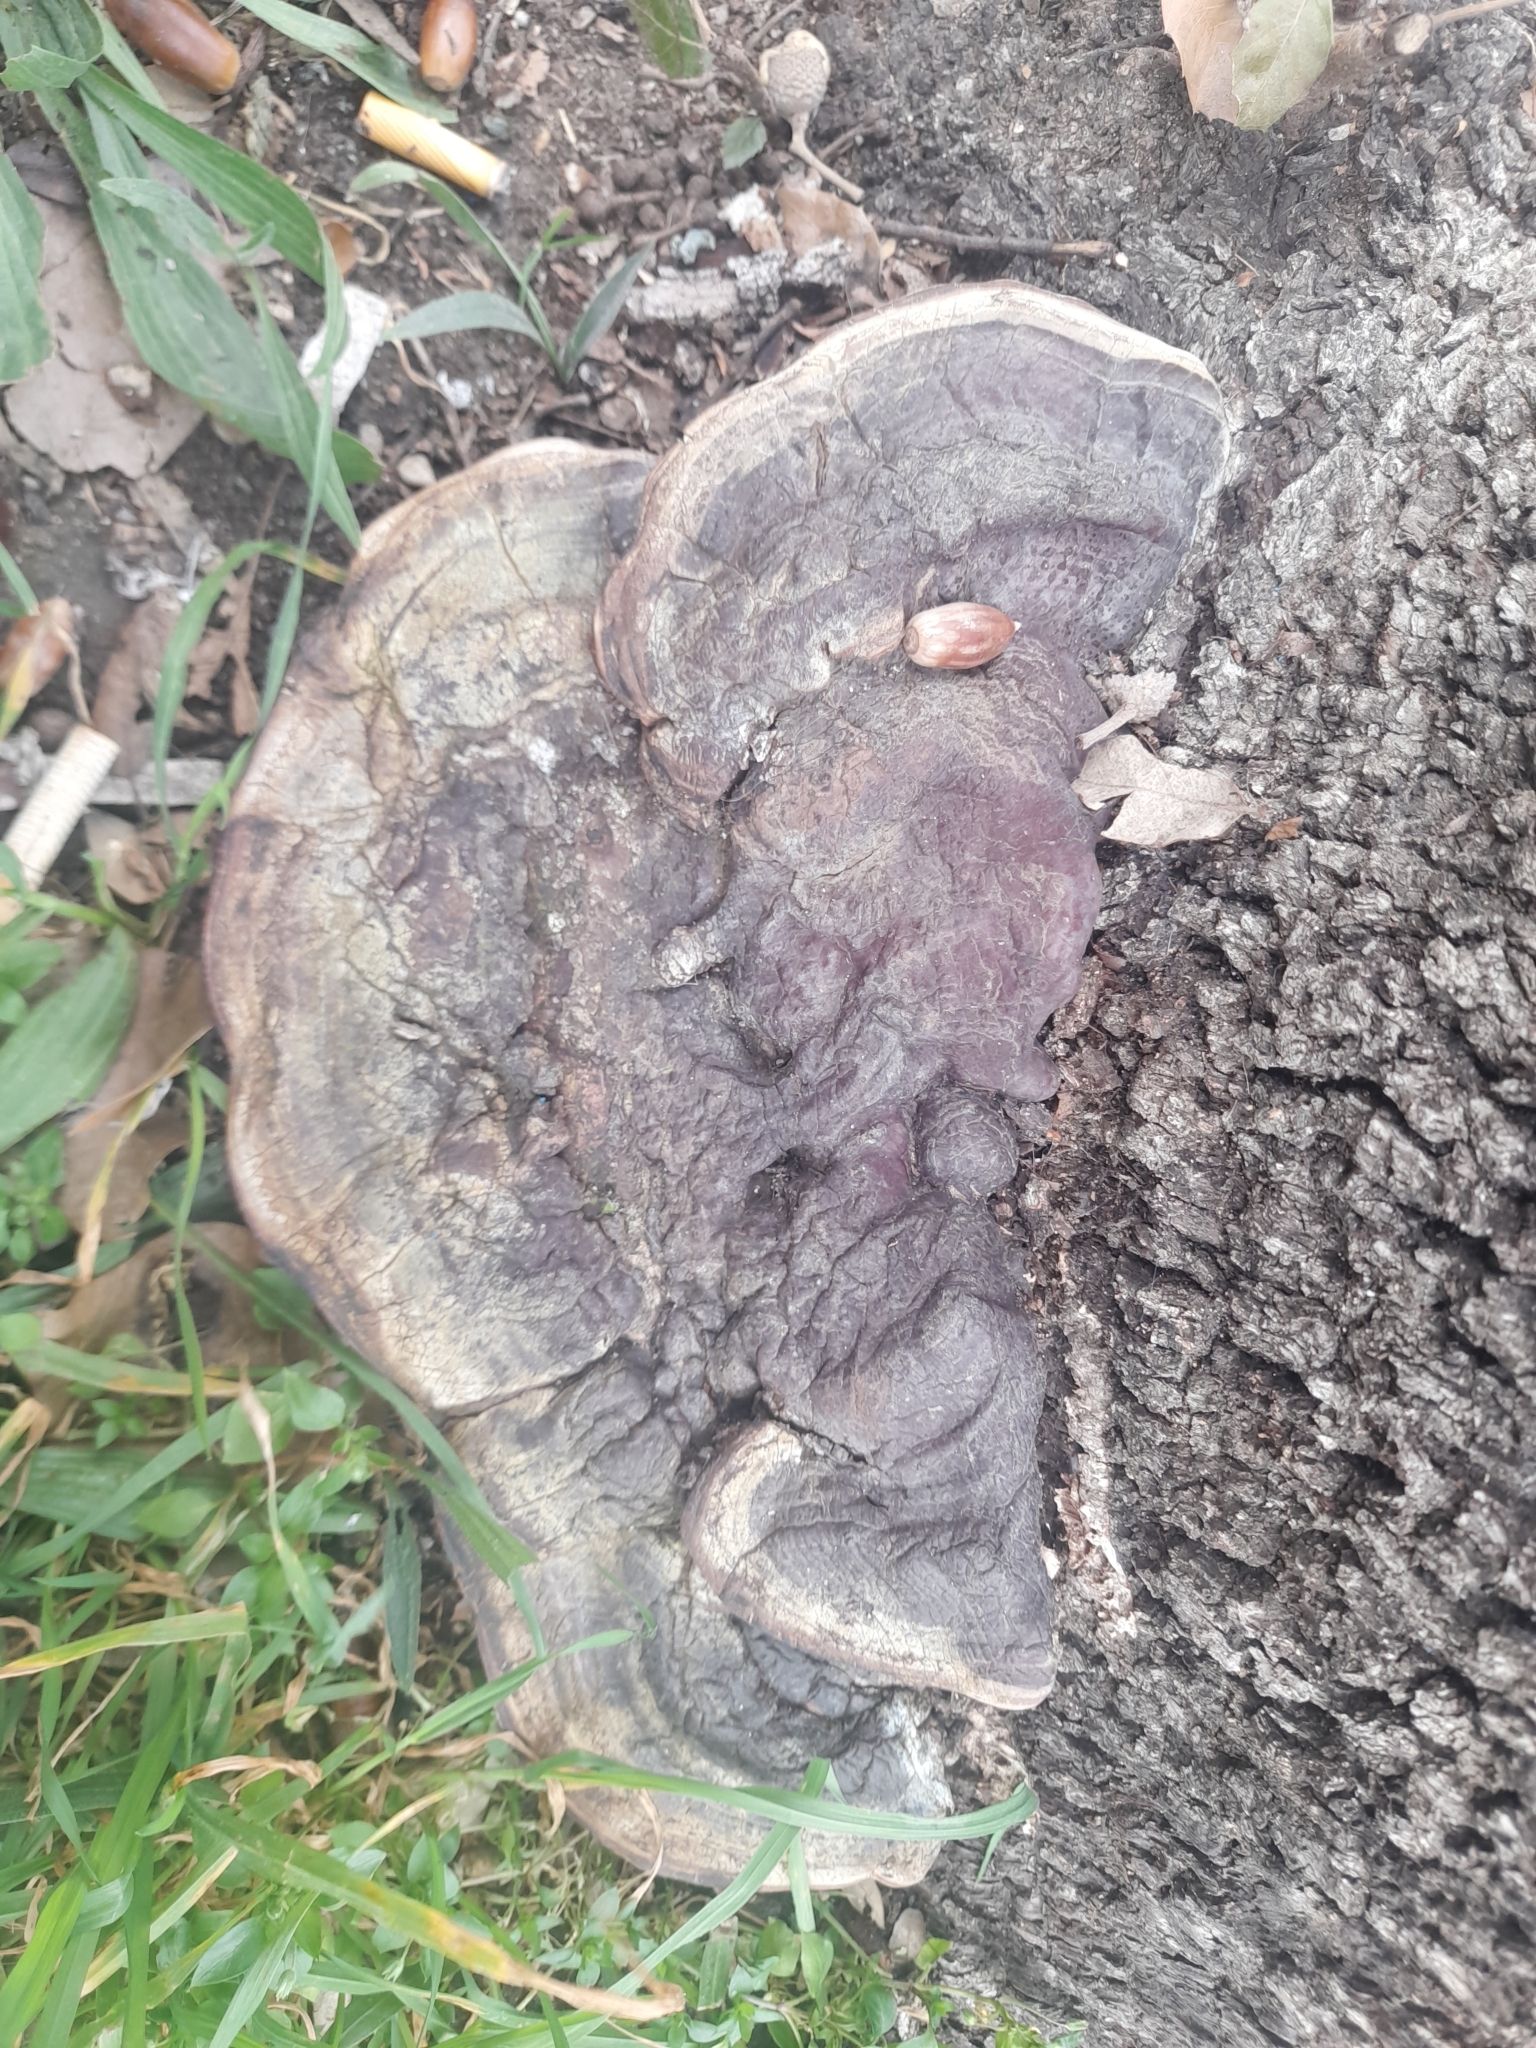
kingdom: Fungi
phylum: Basidiomycota
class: Agaricomycetes
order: Polyporales
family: Polyporaceae
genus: Ganoderma
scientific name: Ganoderma resinaceum
